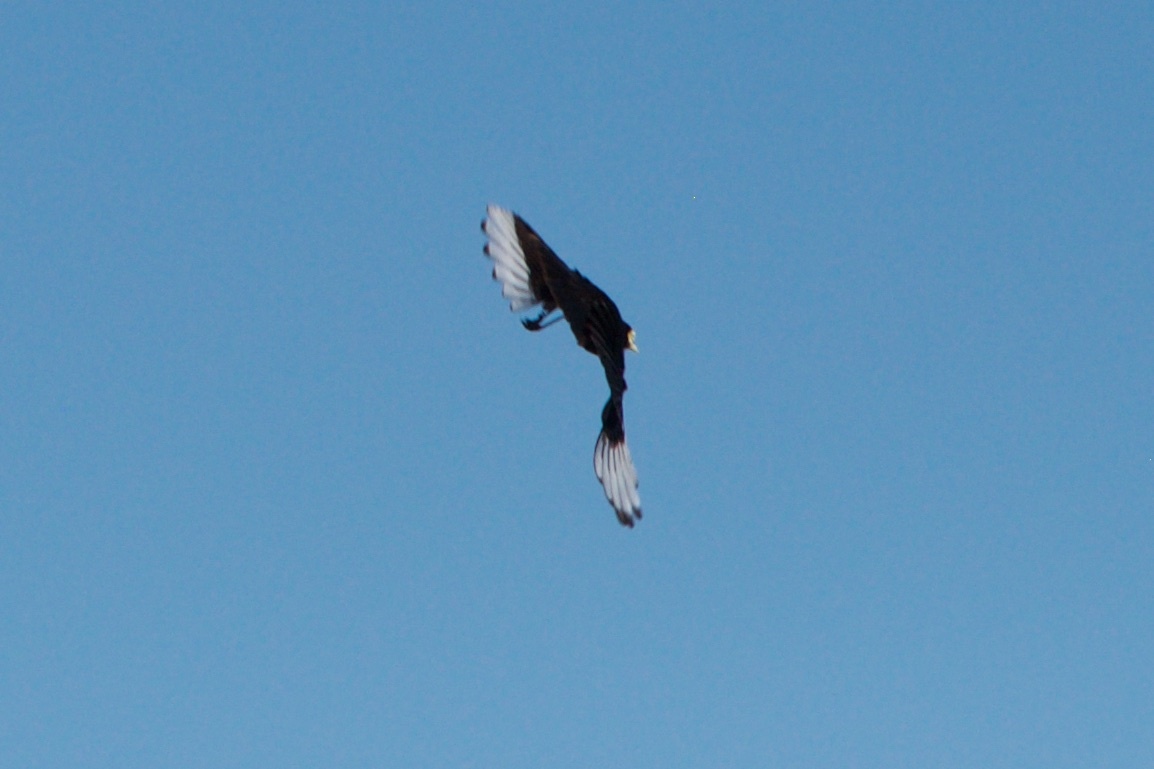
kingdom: Animalia
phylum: Chordata
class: Aves
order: Passeriformes
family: Tyrannidae
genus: Hymenops
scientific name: Hymenops perspicillatus
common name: Spectacled tyrant
